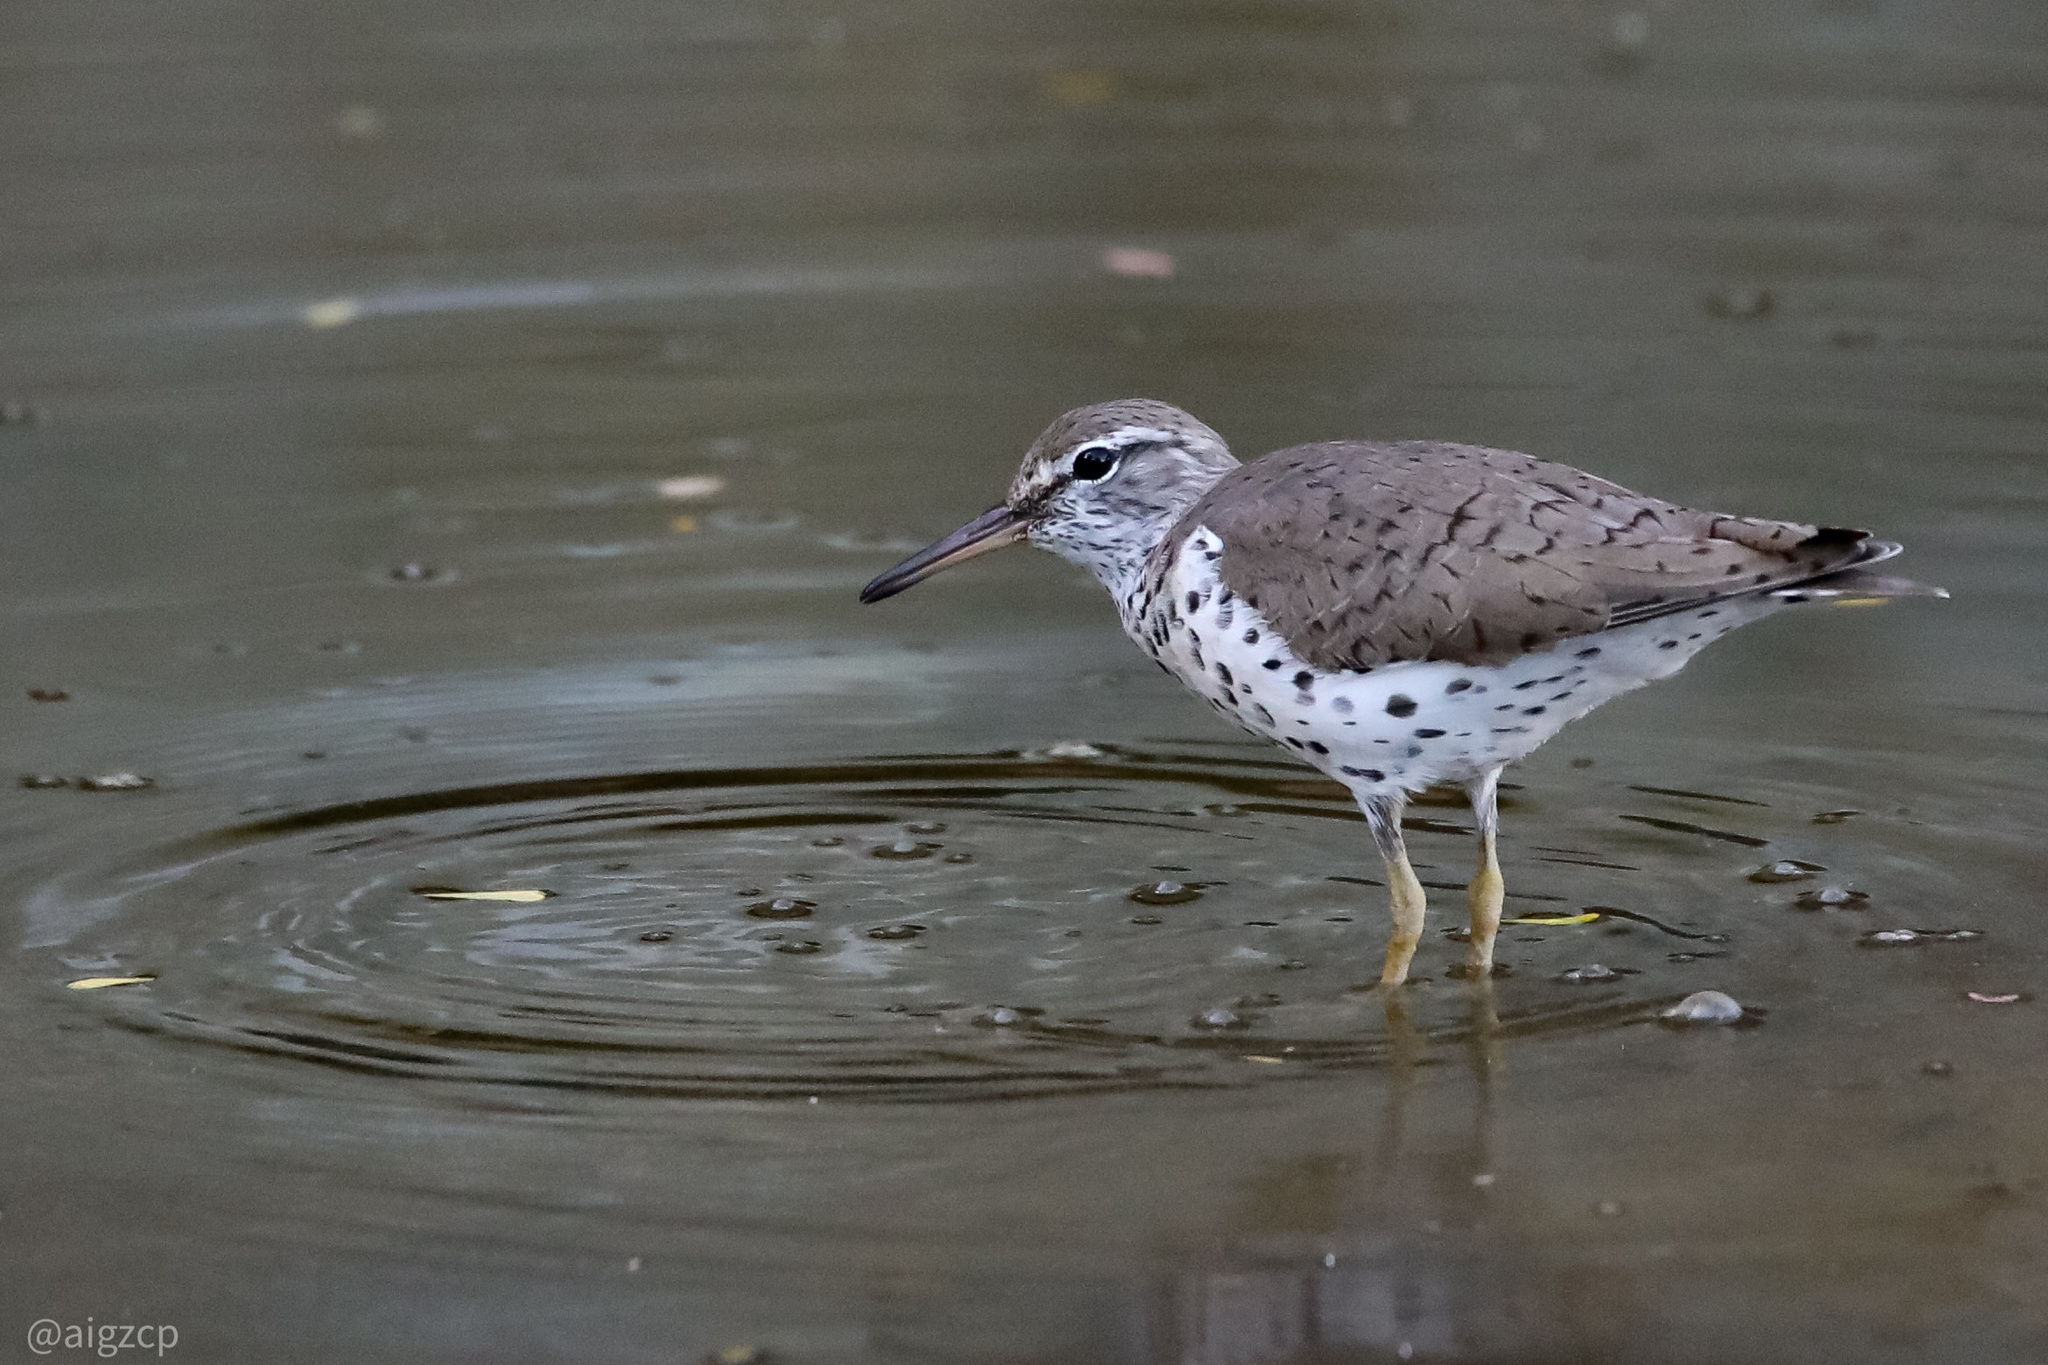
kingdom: Animalia
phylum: Chordata
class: Aves
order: Charadriiformes
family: Scolopacidae
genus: Actitis
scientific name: Actitis macularius
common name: Spotted sandpiper
